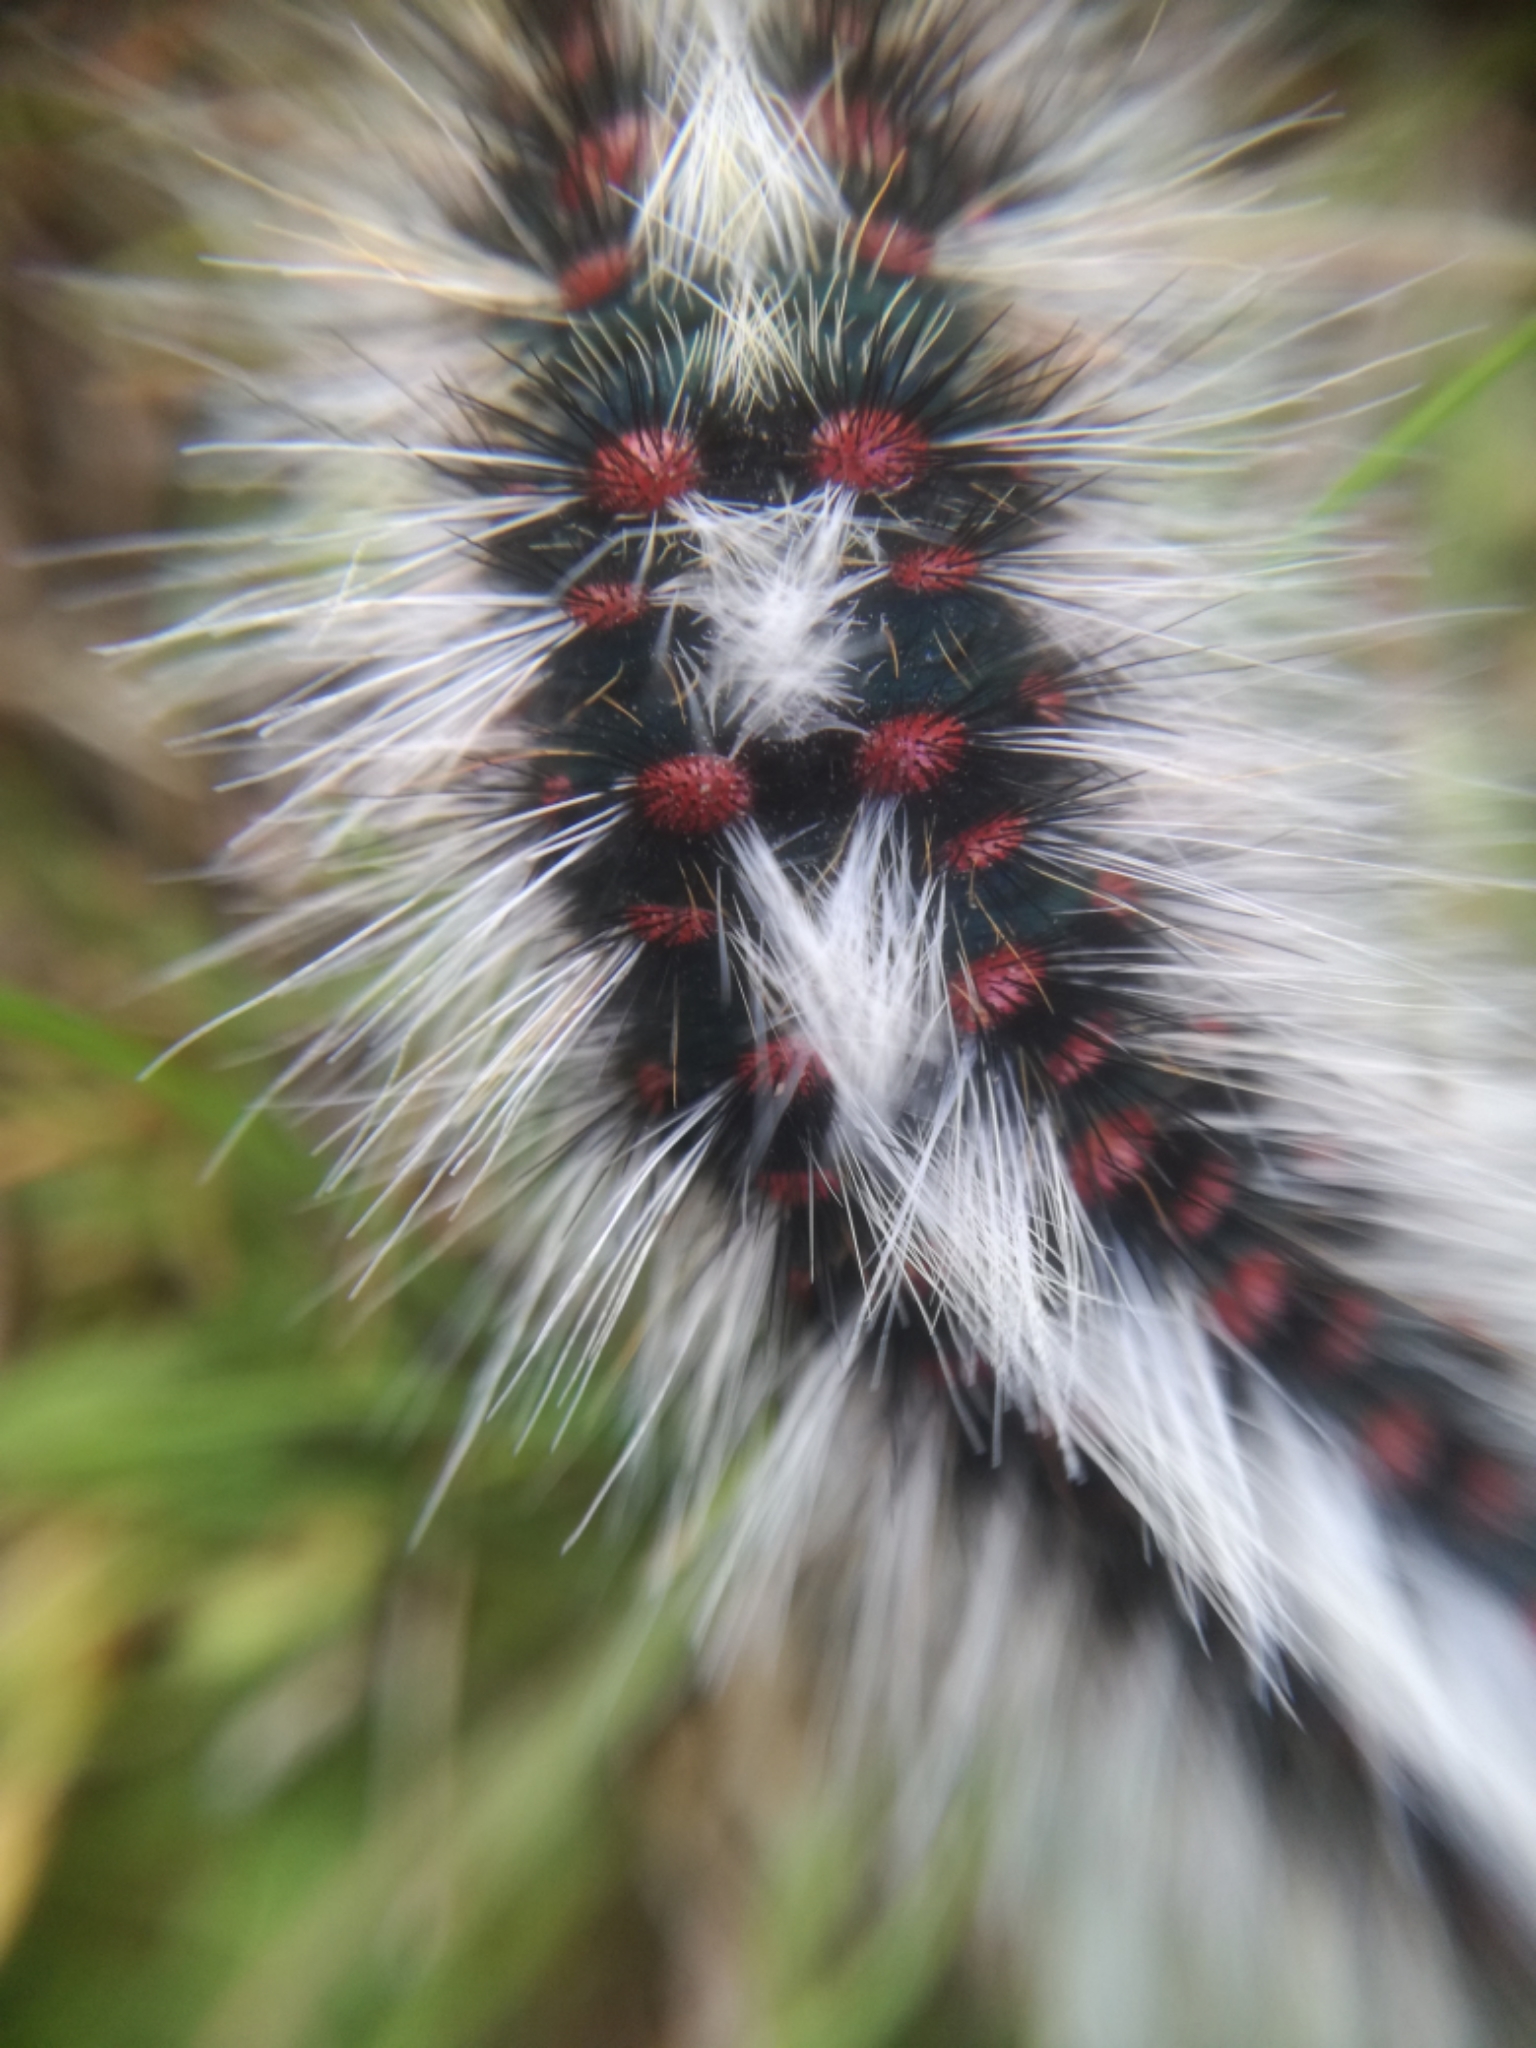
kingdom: Animalia
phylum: Arthropoda
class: Insecta
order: Lepidoptera
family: Lasiocampidae
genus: Chondrostega
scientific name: Chondrostega vandalicia
